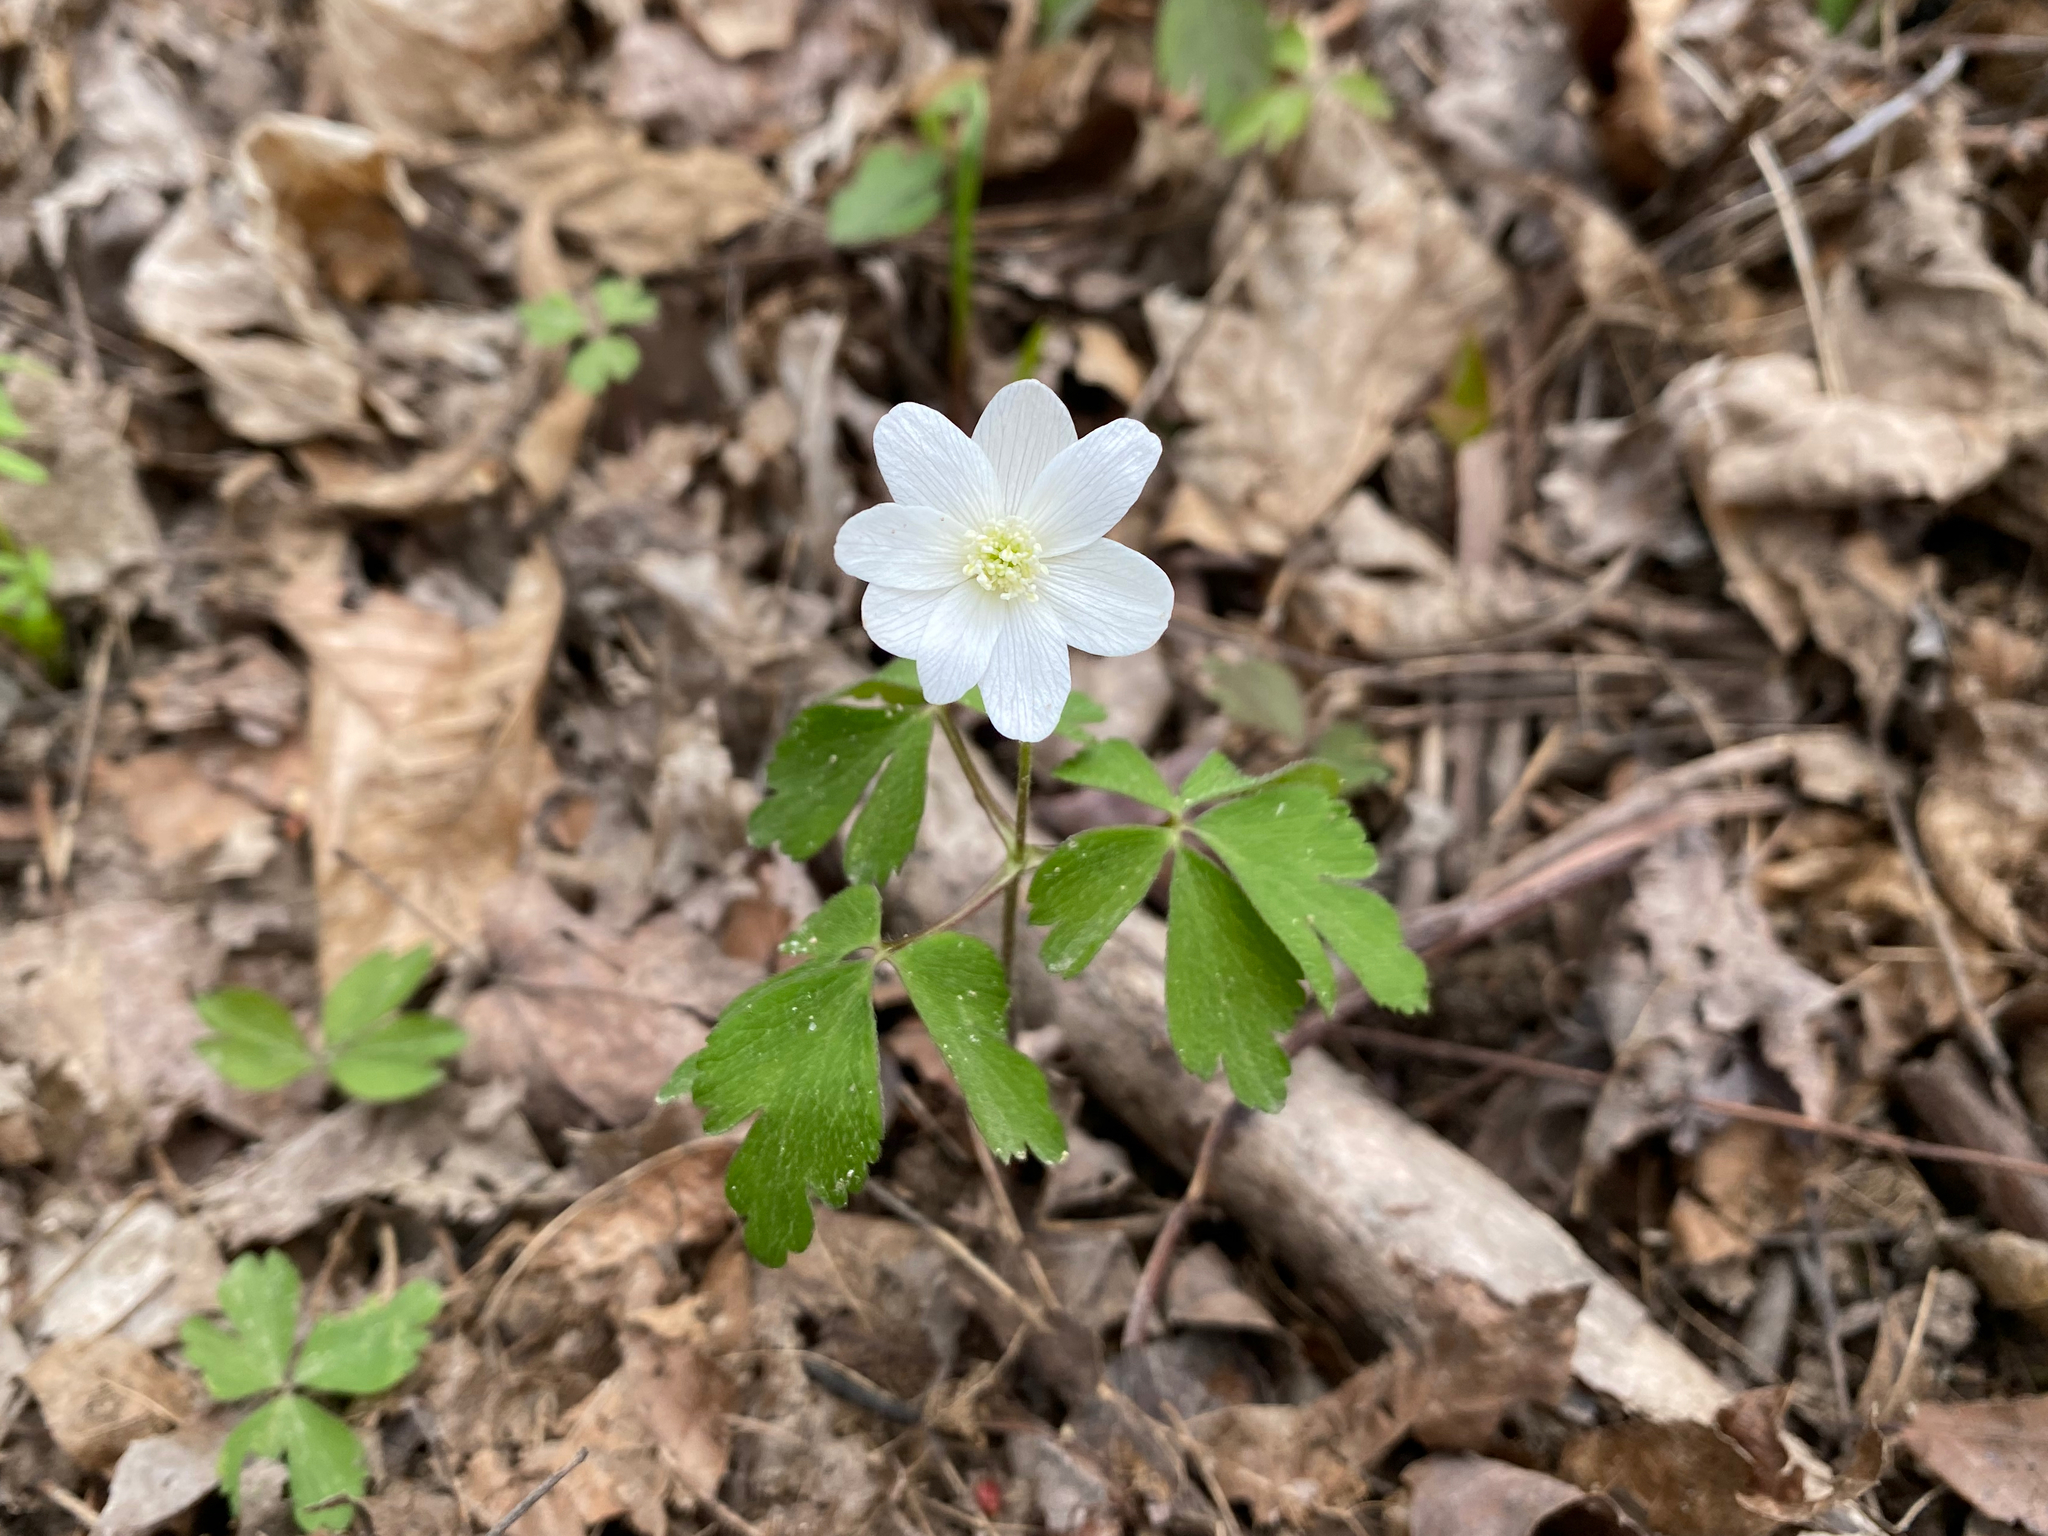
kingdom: Plantae
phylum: Tracheophyta
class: Magnoliopsida
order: Ranunculales
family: Ranunculaceae
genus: Anemone
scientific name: Anemone quinquefolia
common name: Wood anemone
